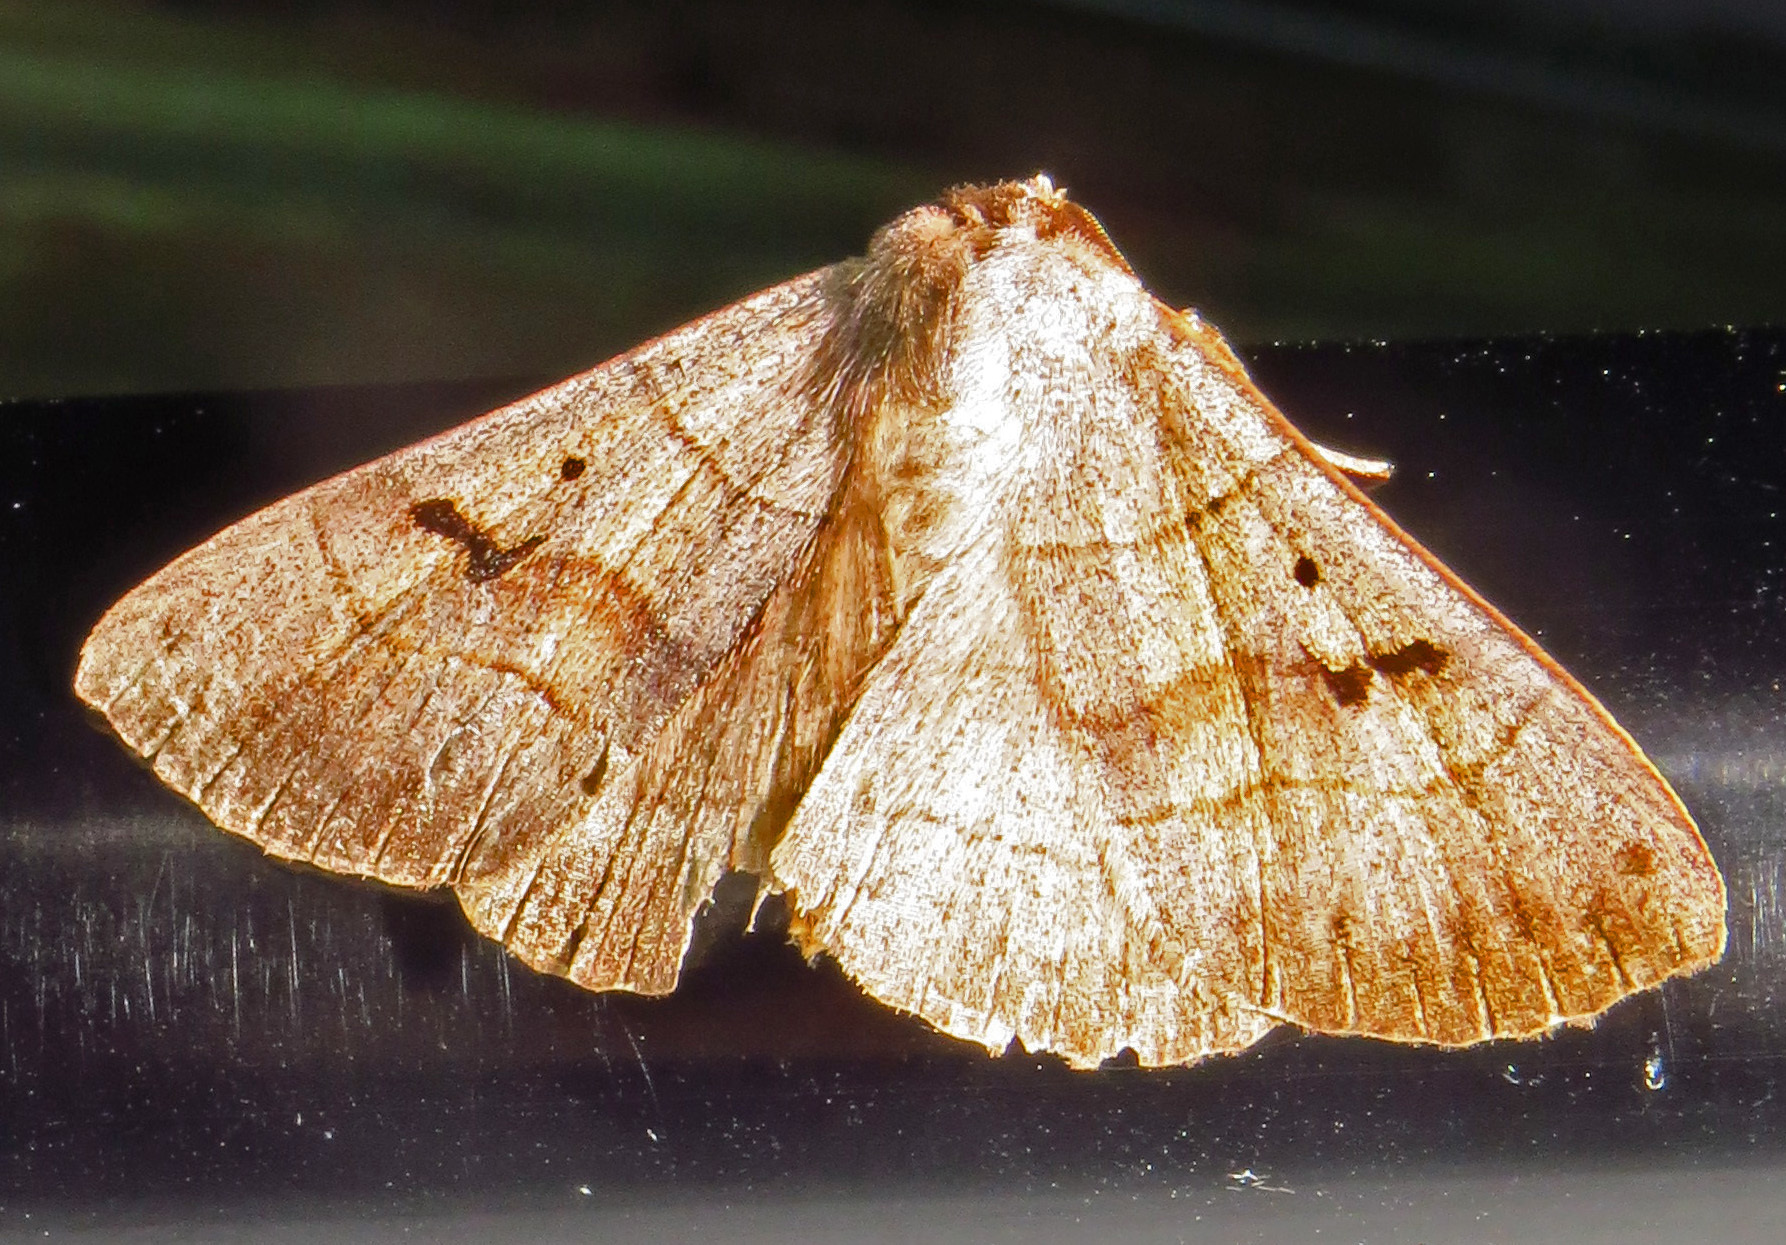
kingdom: Animalia
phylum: Arthropoda
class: Insecta
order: Lepidoptera
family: Erebidae
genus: Panopoda
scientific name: Panopoda carneicosta
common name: Brown panopoda moth
